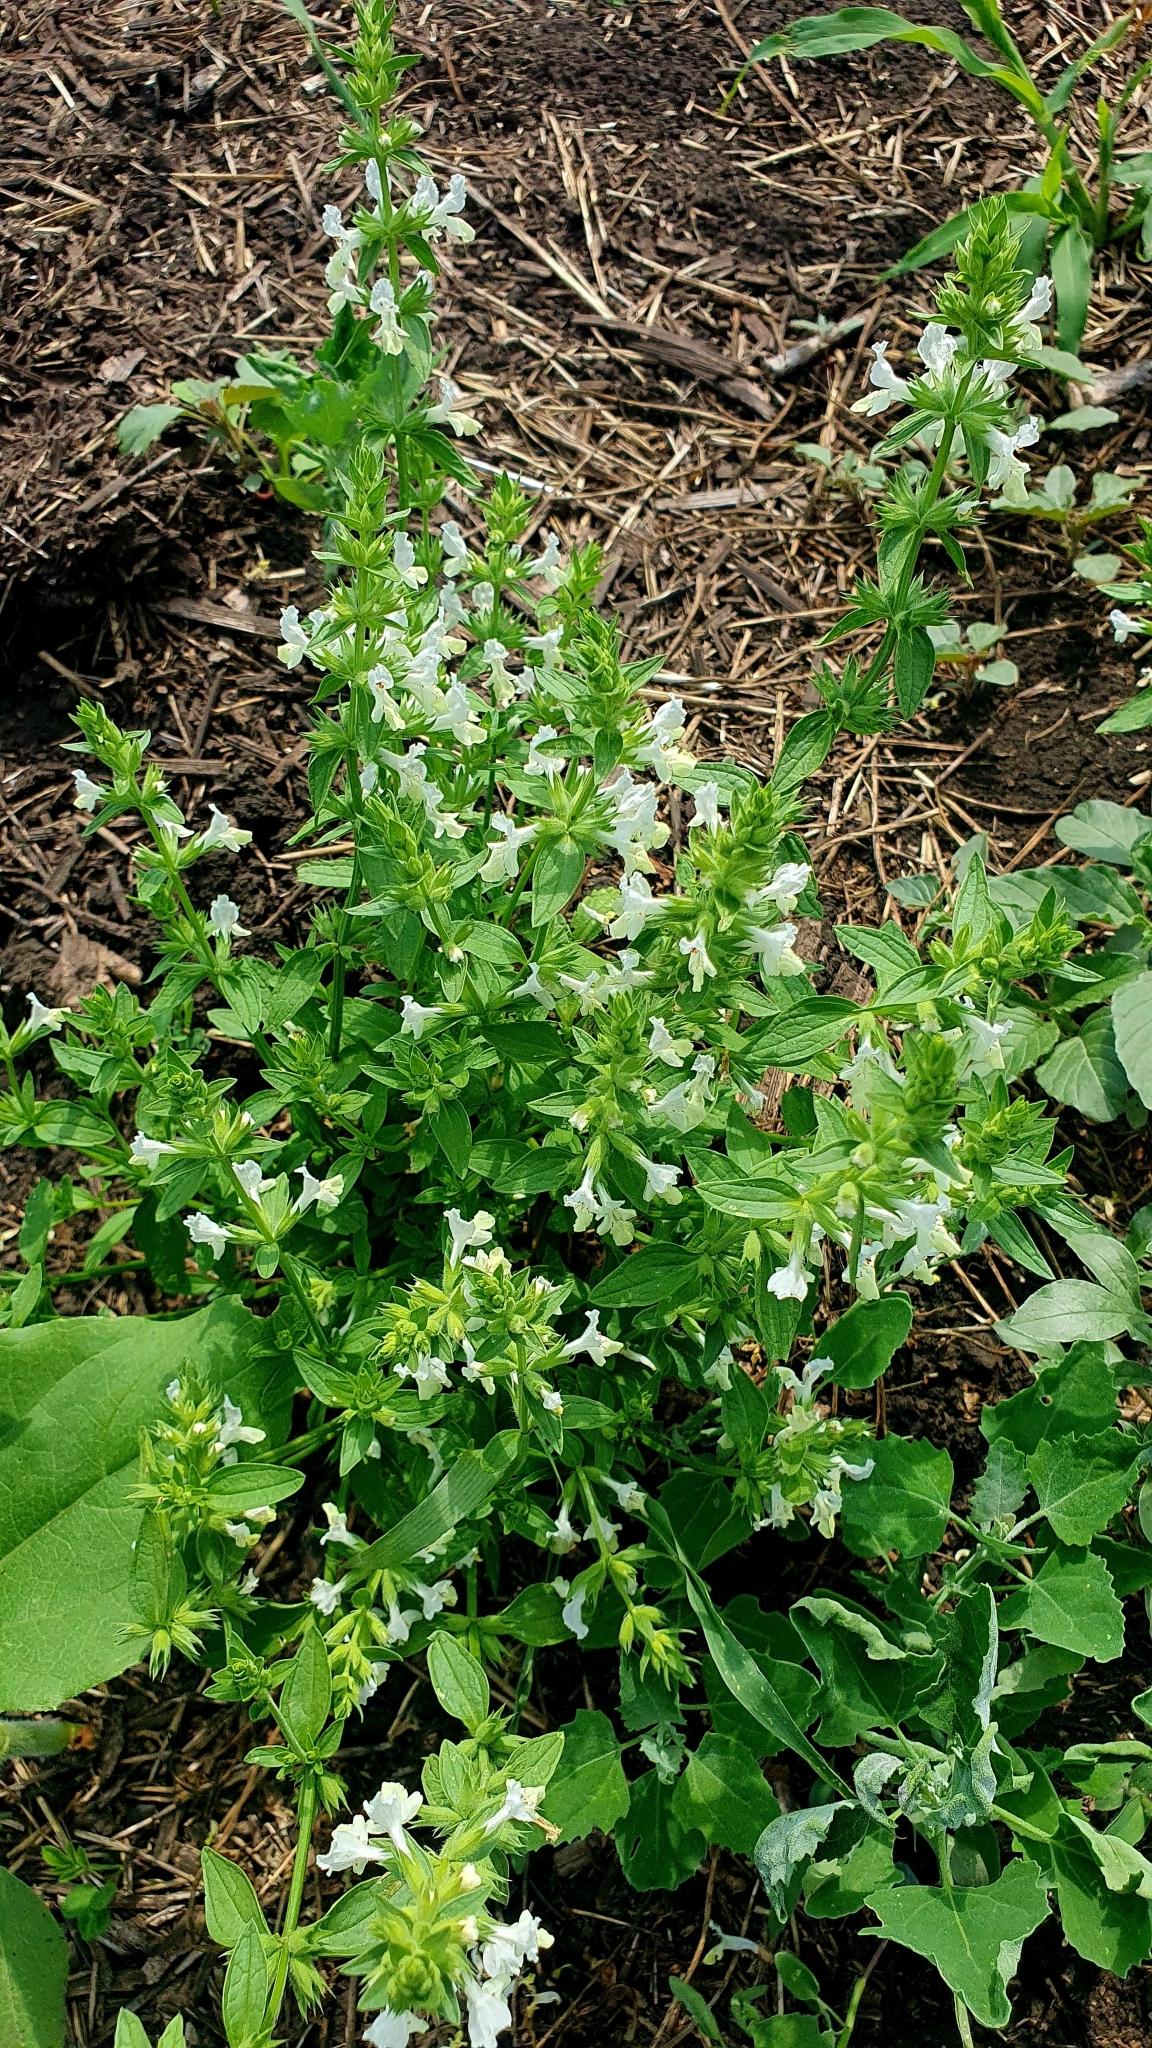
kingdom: Plantae
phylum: Tracheophyta
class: Magnoliopsida
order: Lamiales
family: Lamiaceae
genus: Stachys
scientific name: Stachys annua
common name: Annual yellow-woundwort
